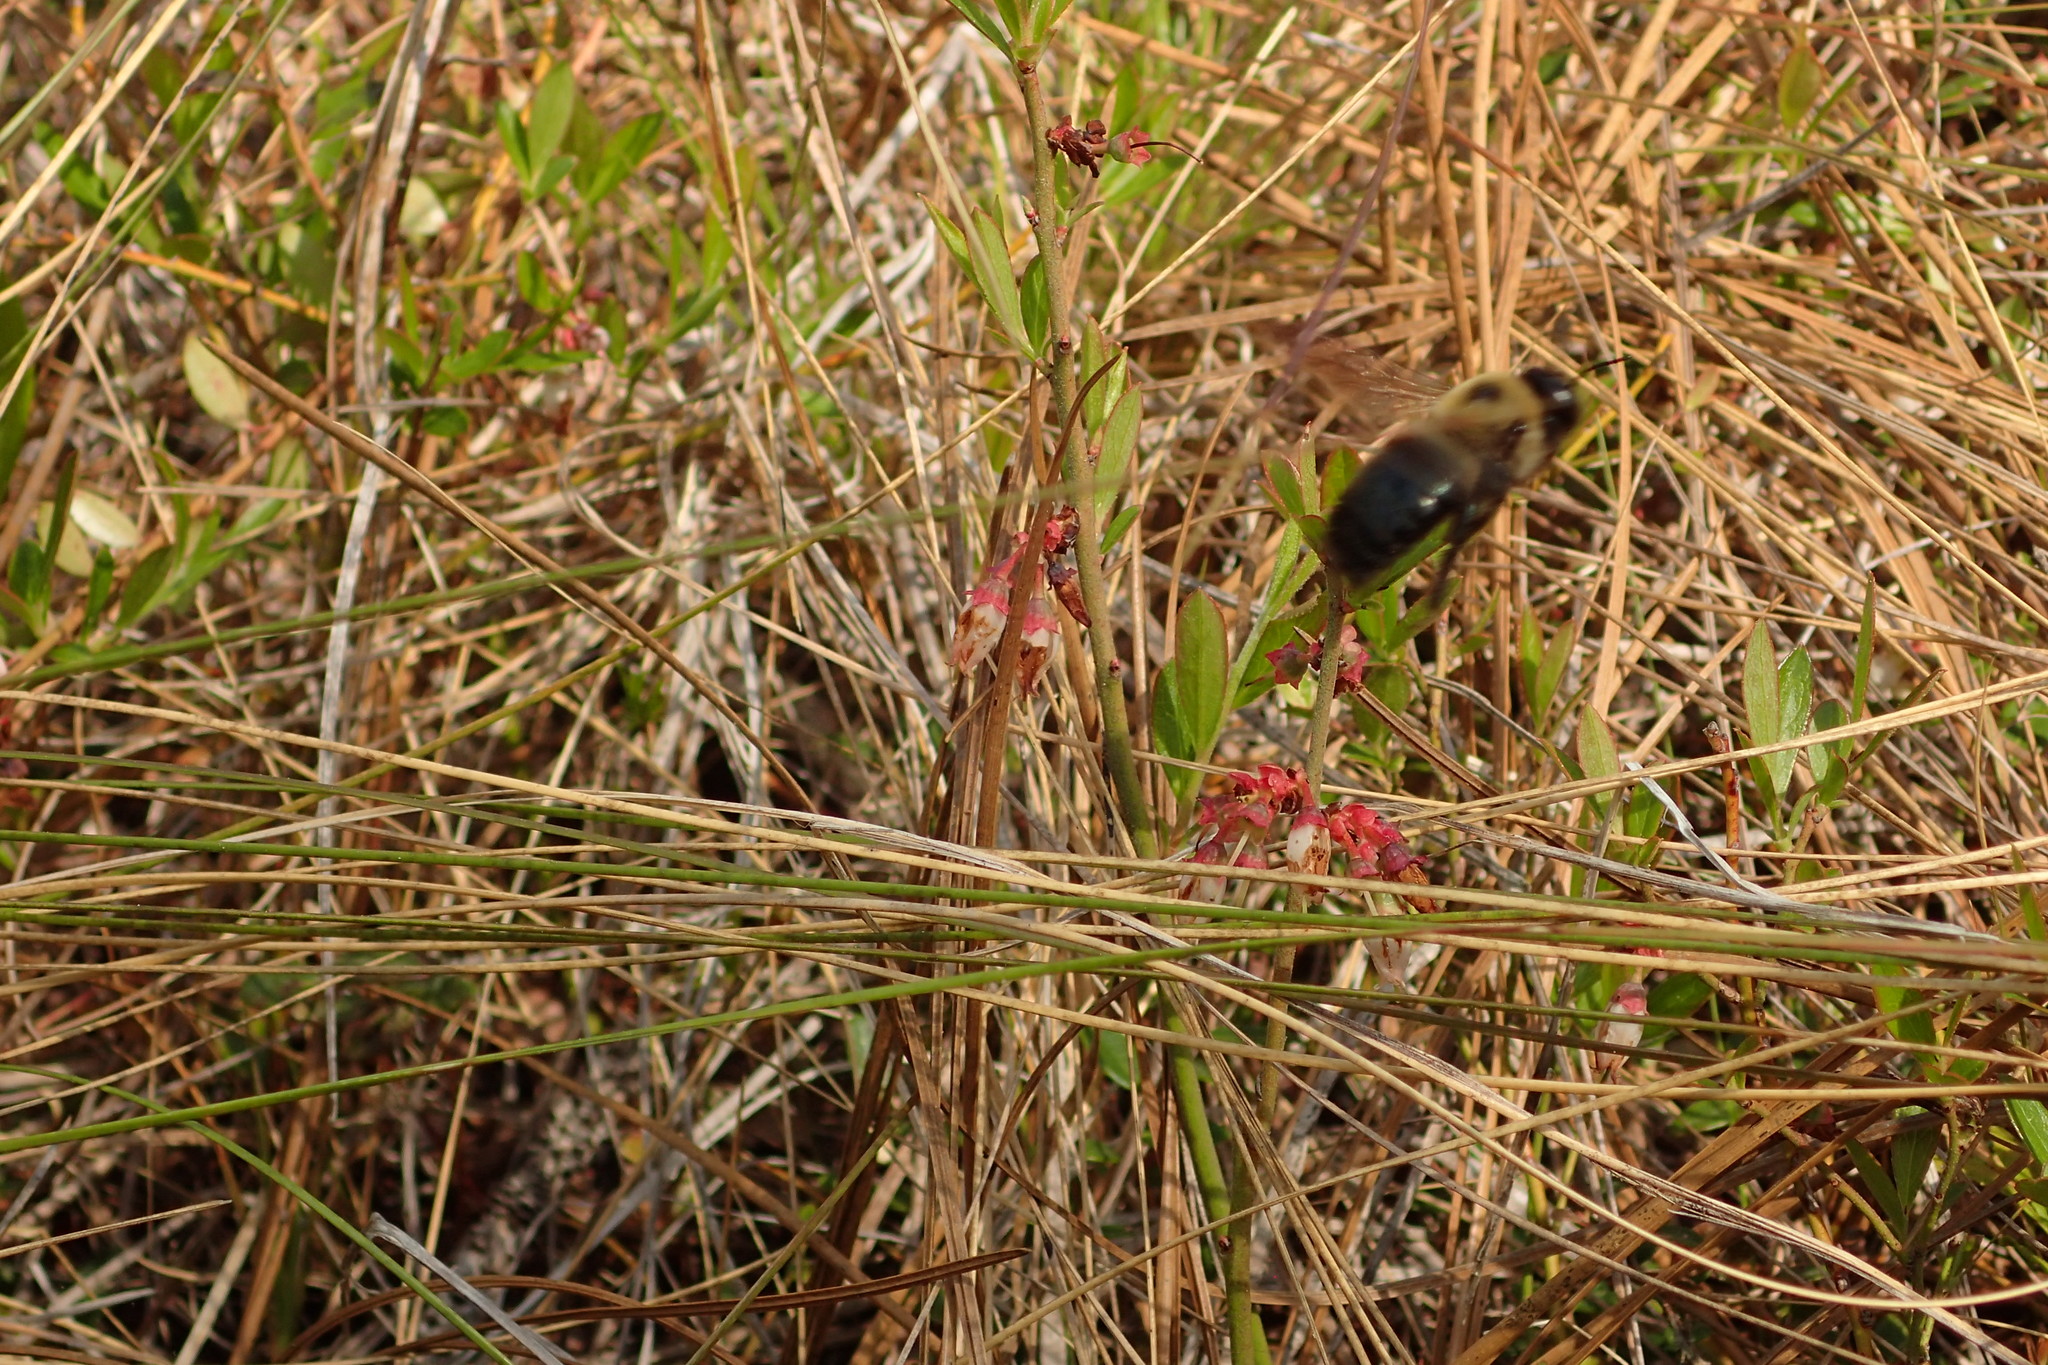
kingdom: Animalia
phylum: Arthropoda
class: Insecta
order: Hymenoptera
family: Apidae
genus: Xylocopa
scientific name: Xylocopa virginica
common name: Carpenter bee
